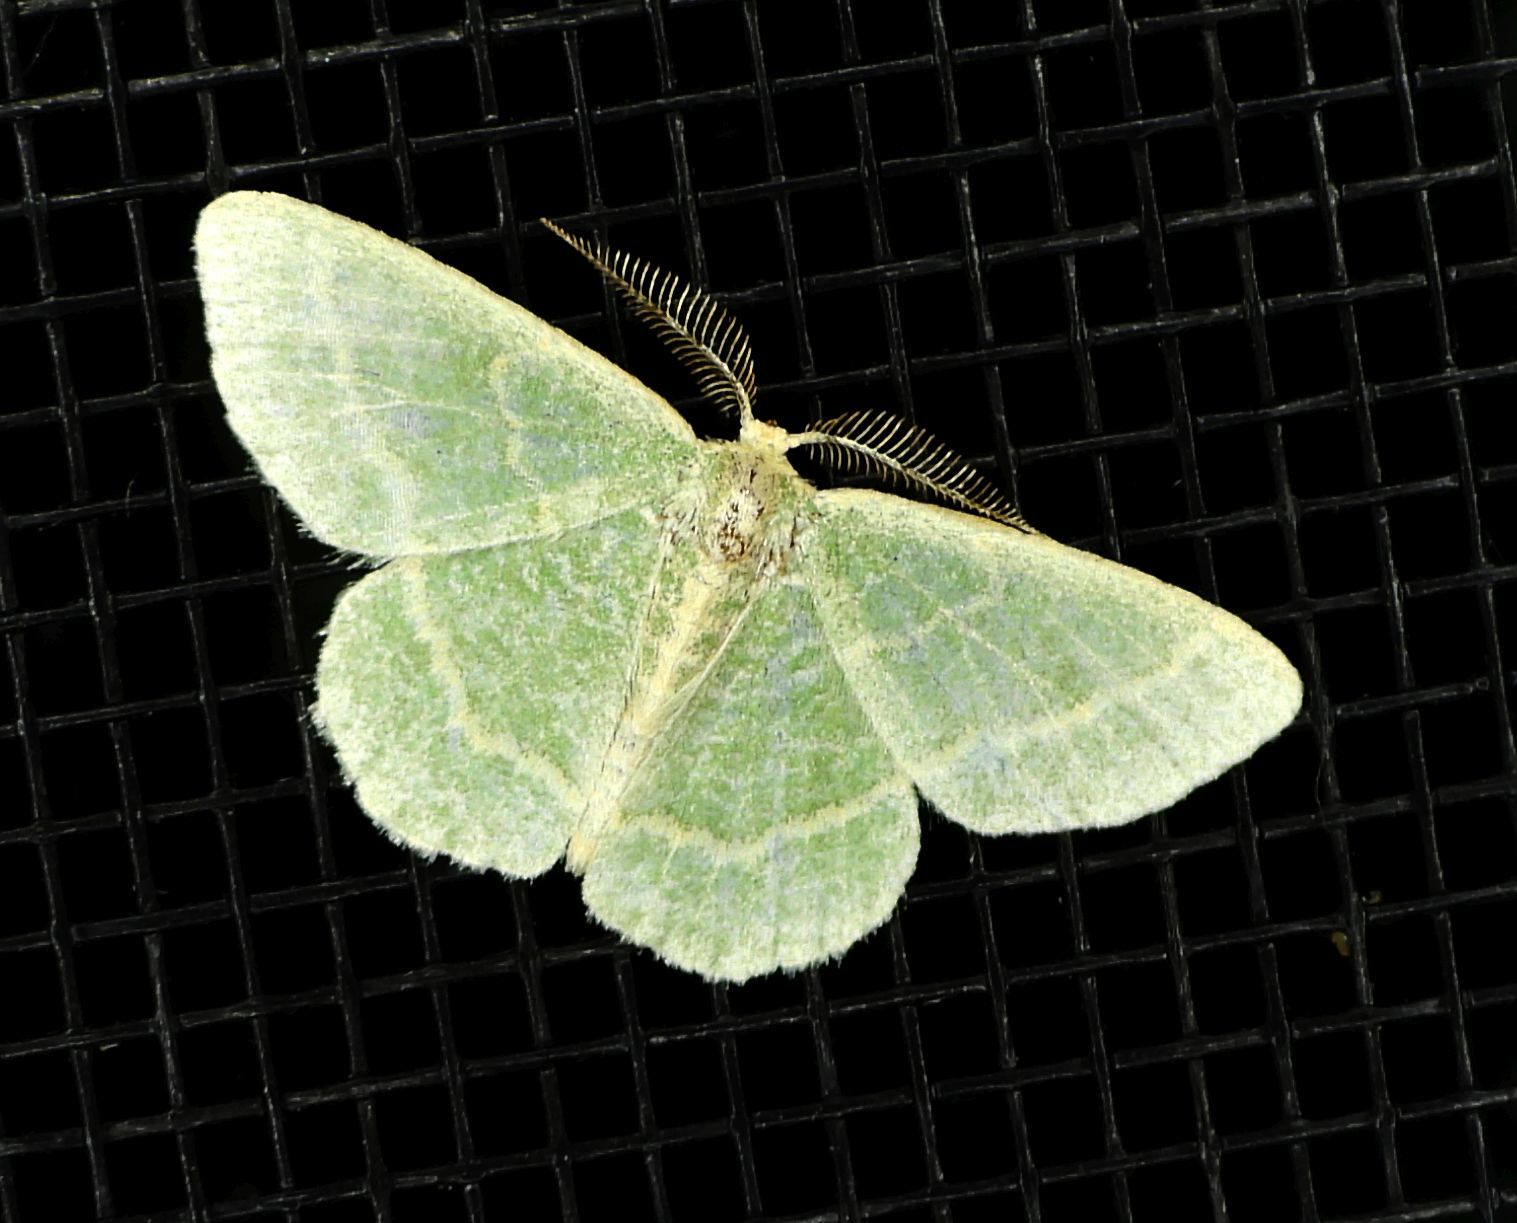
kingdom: Animalia
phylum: Arthropoda
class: Insecta
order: Lepidoptera
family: Geometridae
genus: Chlorochlamys
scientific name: Chlorochlamys chloroleucaria
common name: Blackberry looper
